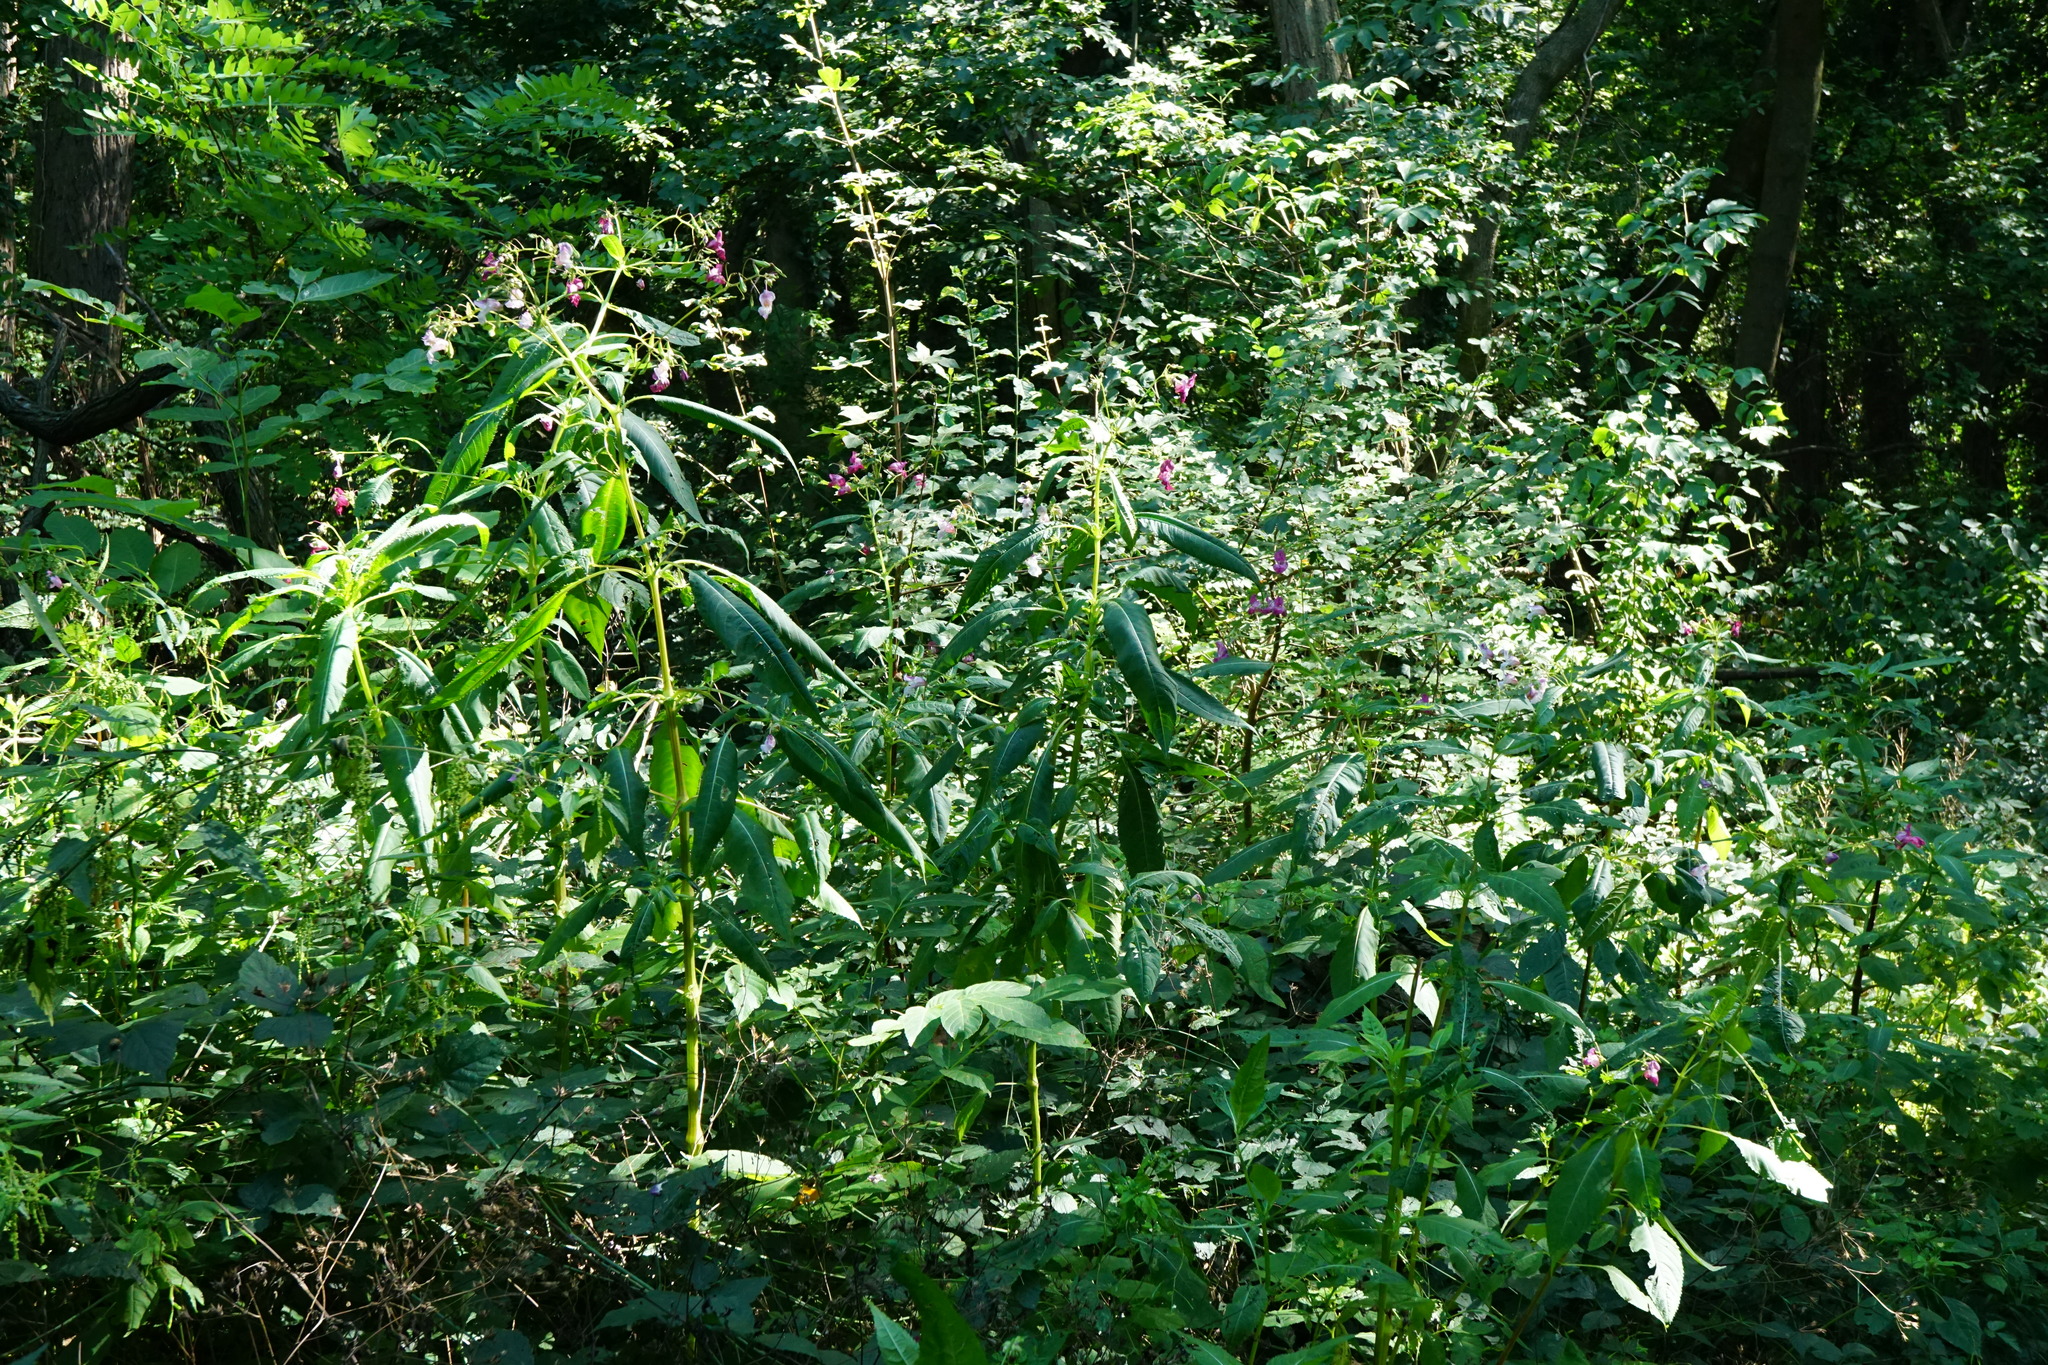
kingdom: Plantae
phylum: Tracheophyta
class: Magnoliopsida
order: Ericales
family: Balsaminaceae
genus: Impatiens
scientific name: Impatiens glandulifera
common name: Himalayan balsam
